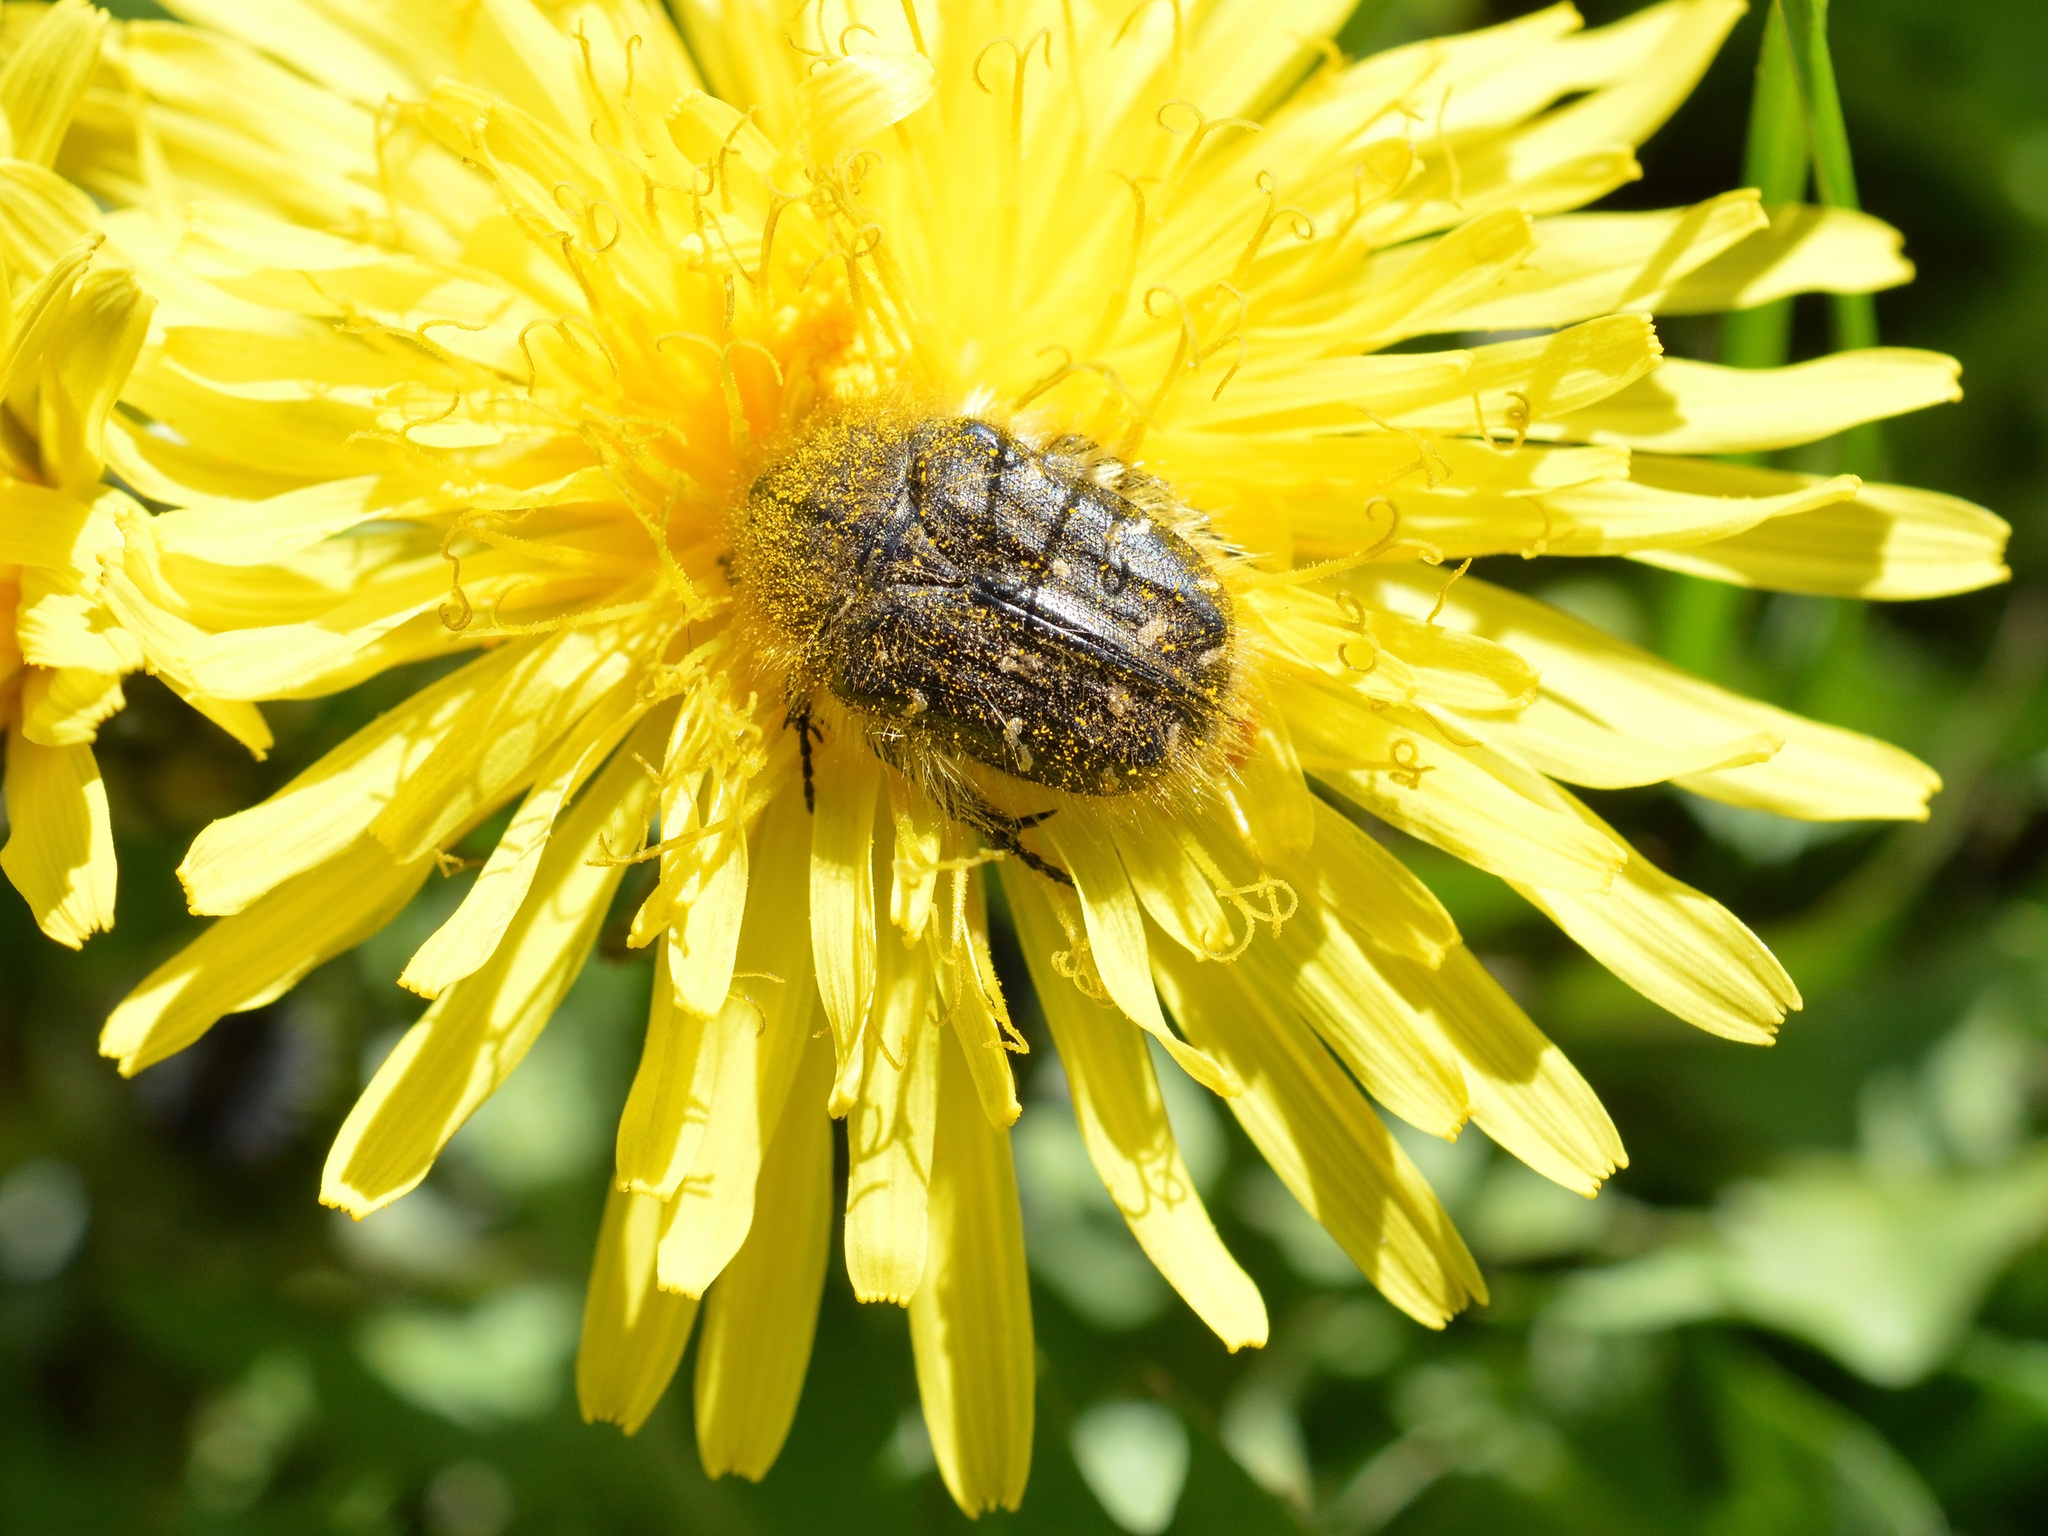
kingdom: Animalia
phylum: Arthropoda
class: Insecta
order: Coleoptera
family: Scarabaeidae
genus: Tropinota
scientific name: Tropinota hirta
